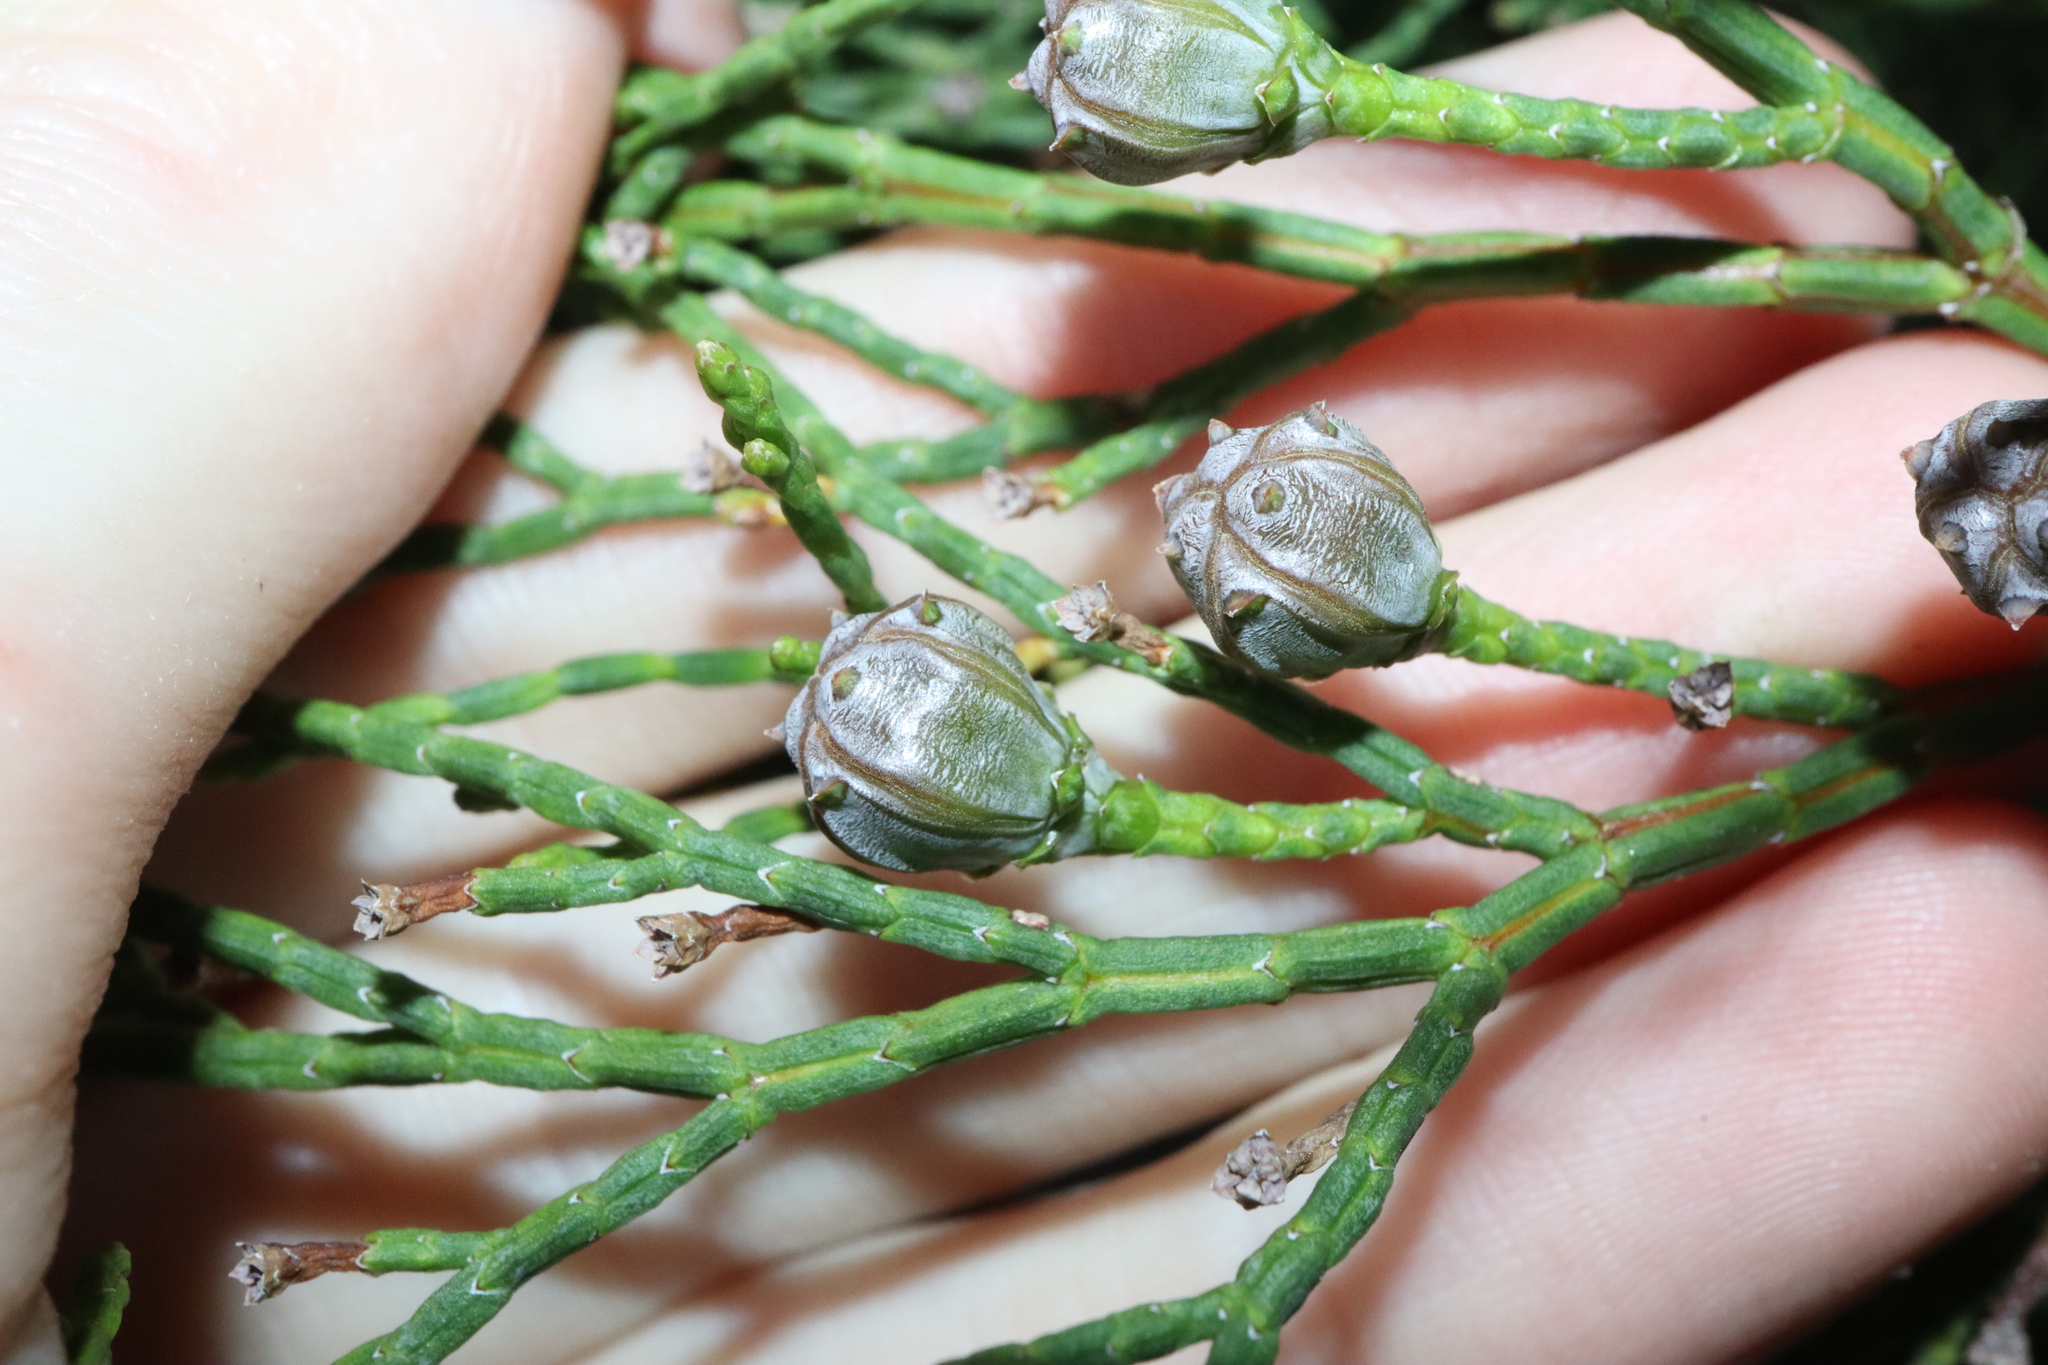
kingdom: Plantae
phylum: Tracheophyta
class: Pinopsida
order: Pinales
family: Cupressaceae
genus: Callitris
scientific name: Callitris roei
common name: Roe's cypress-pine
